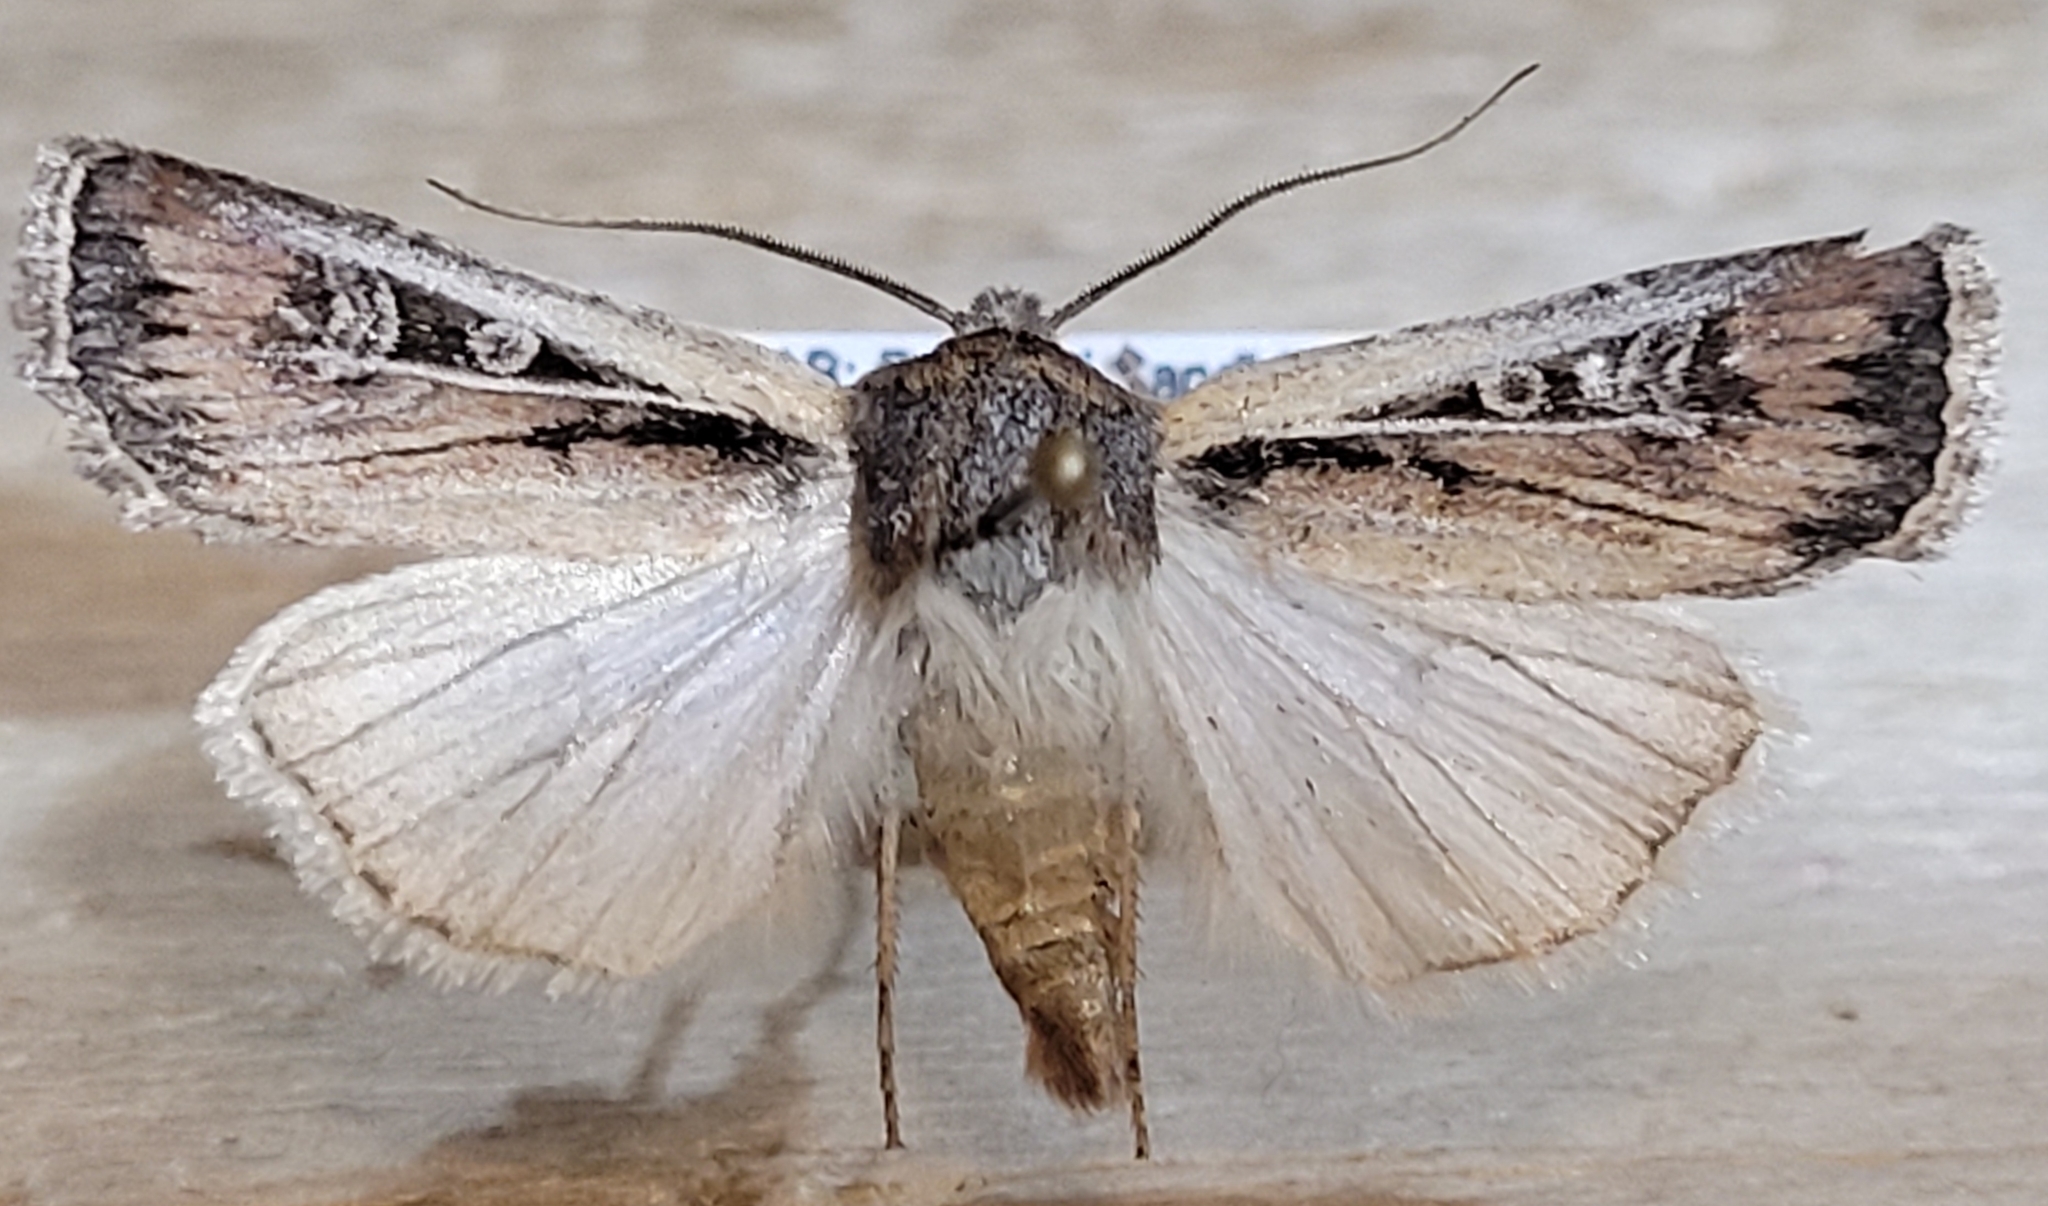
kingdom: Animalia
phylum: Arthropoda
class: Insecta
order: Lepidoptera
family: Noctuidae
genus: Euxoa
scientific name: Euxoa laetificans
